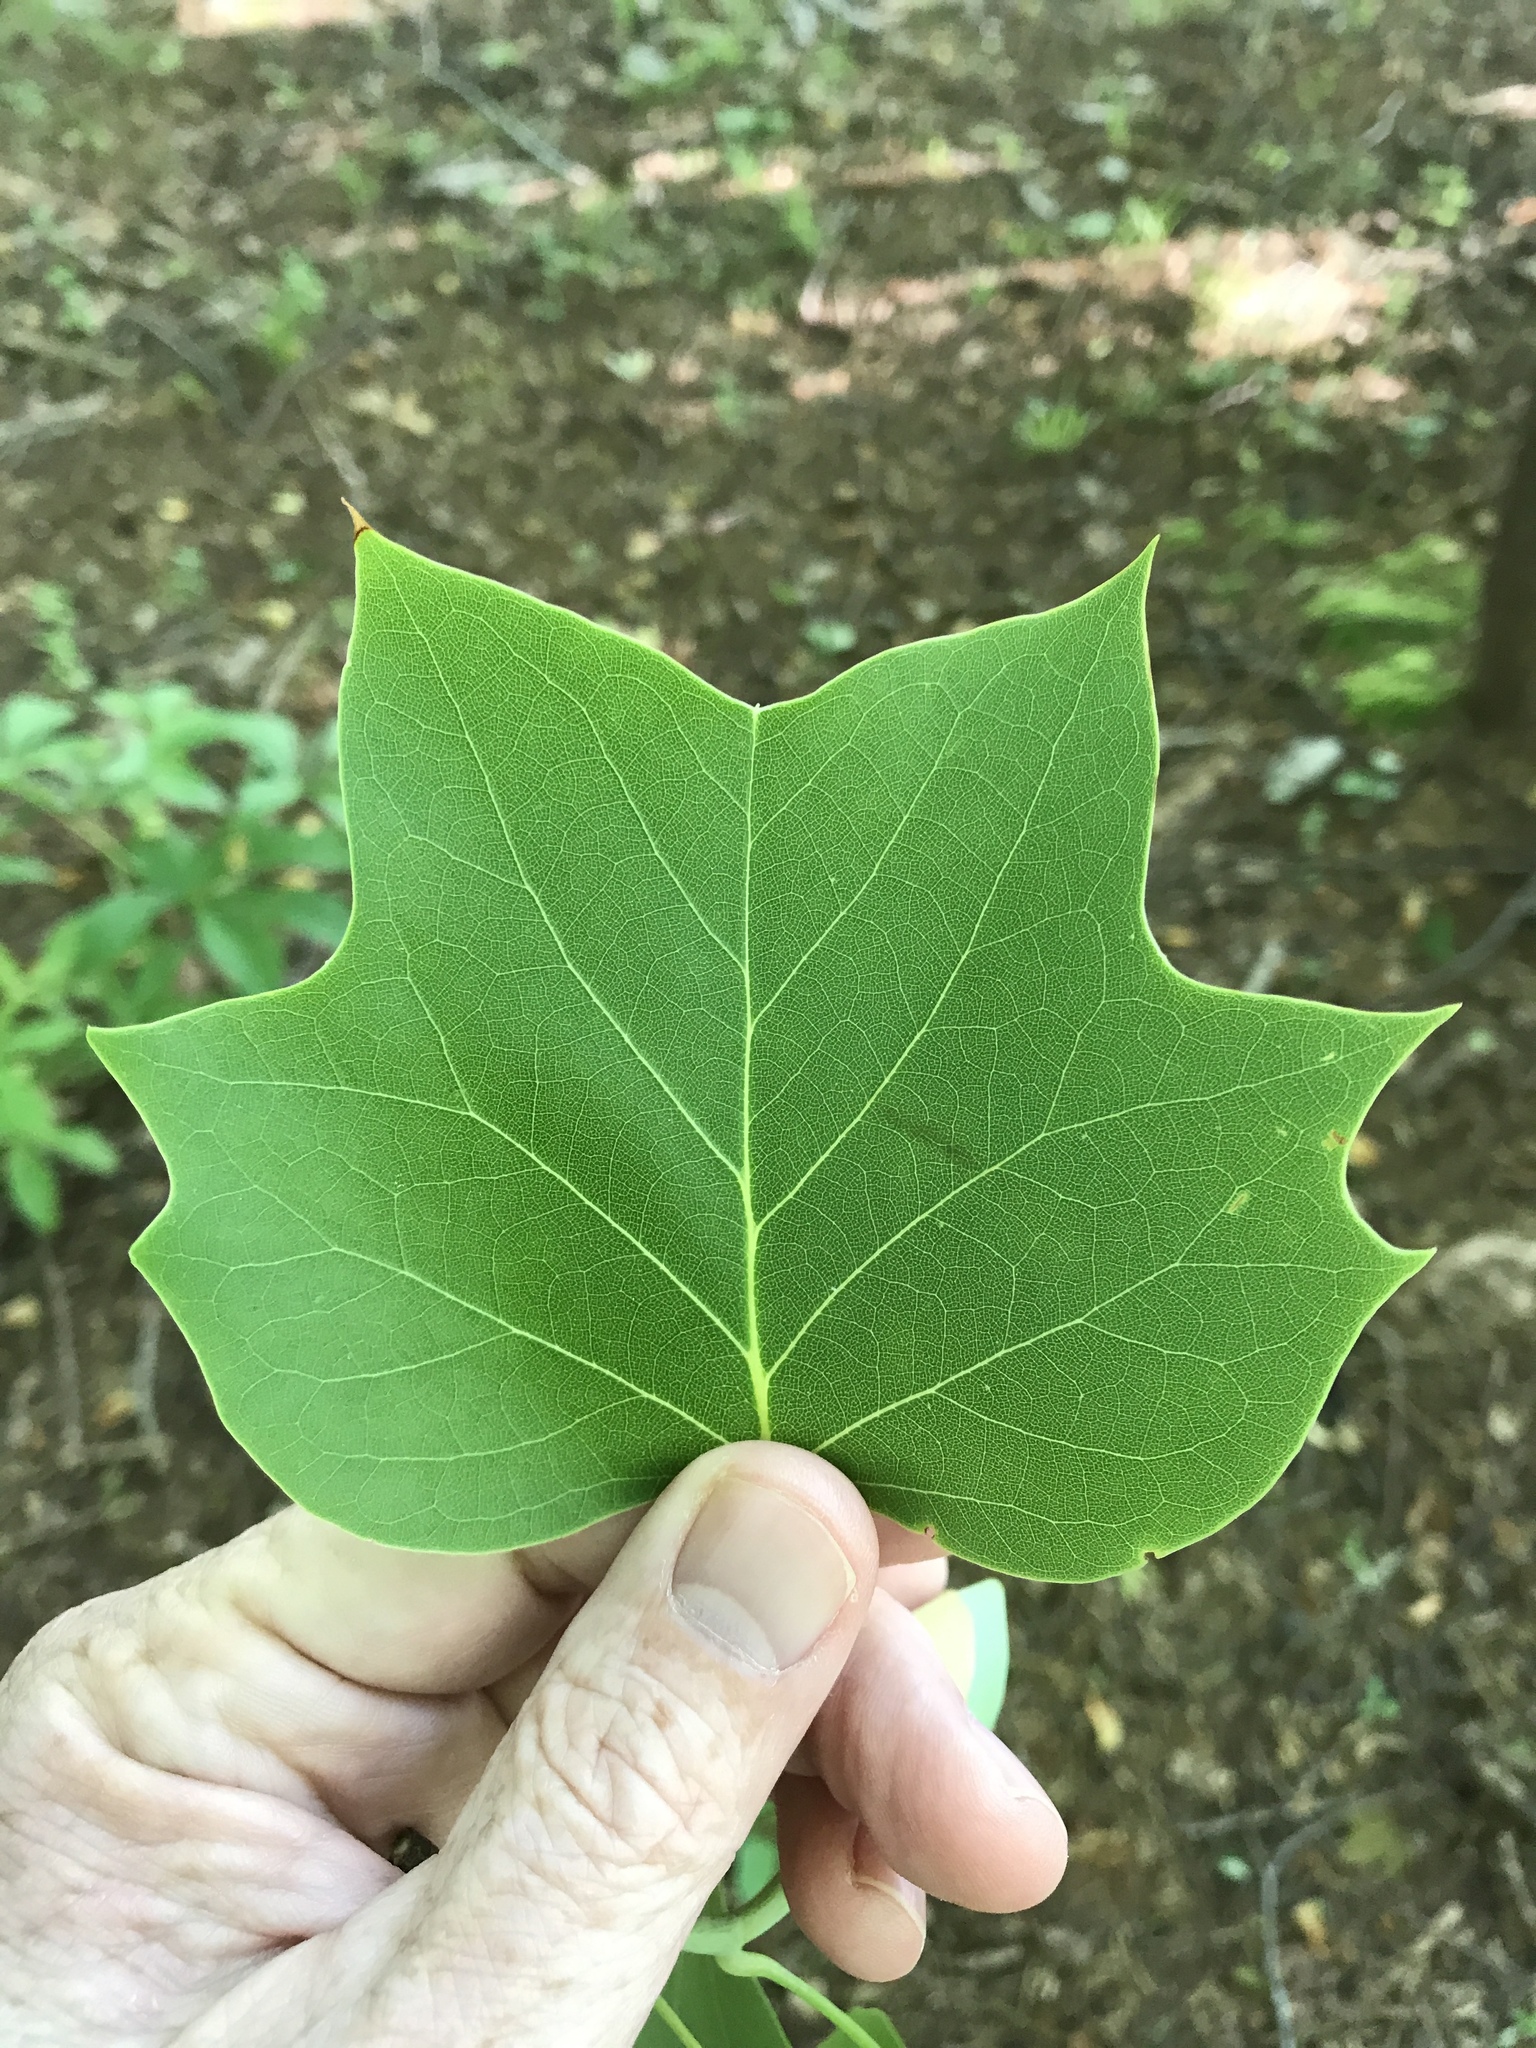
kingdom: Plantae
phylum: Tracheophyta
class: Magnoliopsida
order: Magnoliales
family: Magnoliaceae
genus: Liriodendron
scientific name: Liriodendron tulipifera
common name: Tulip tree
